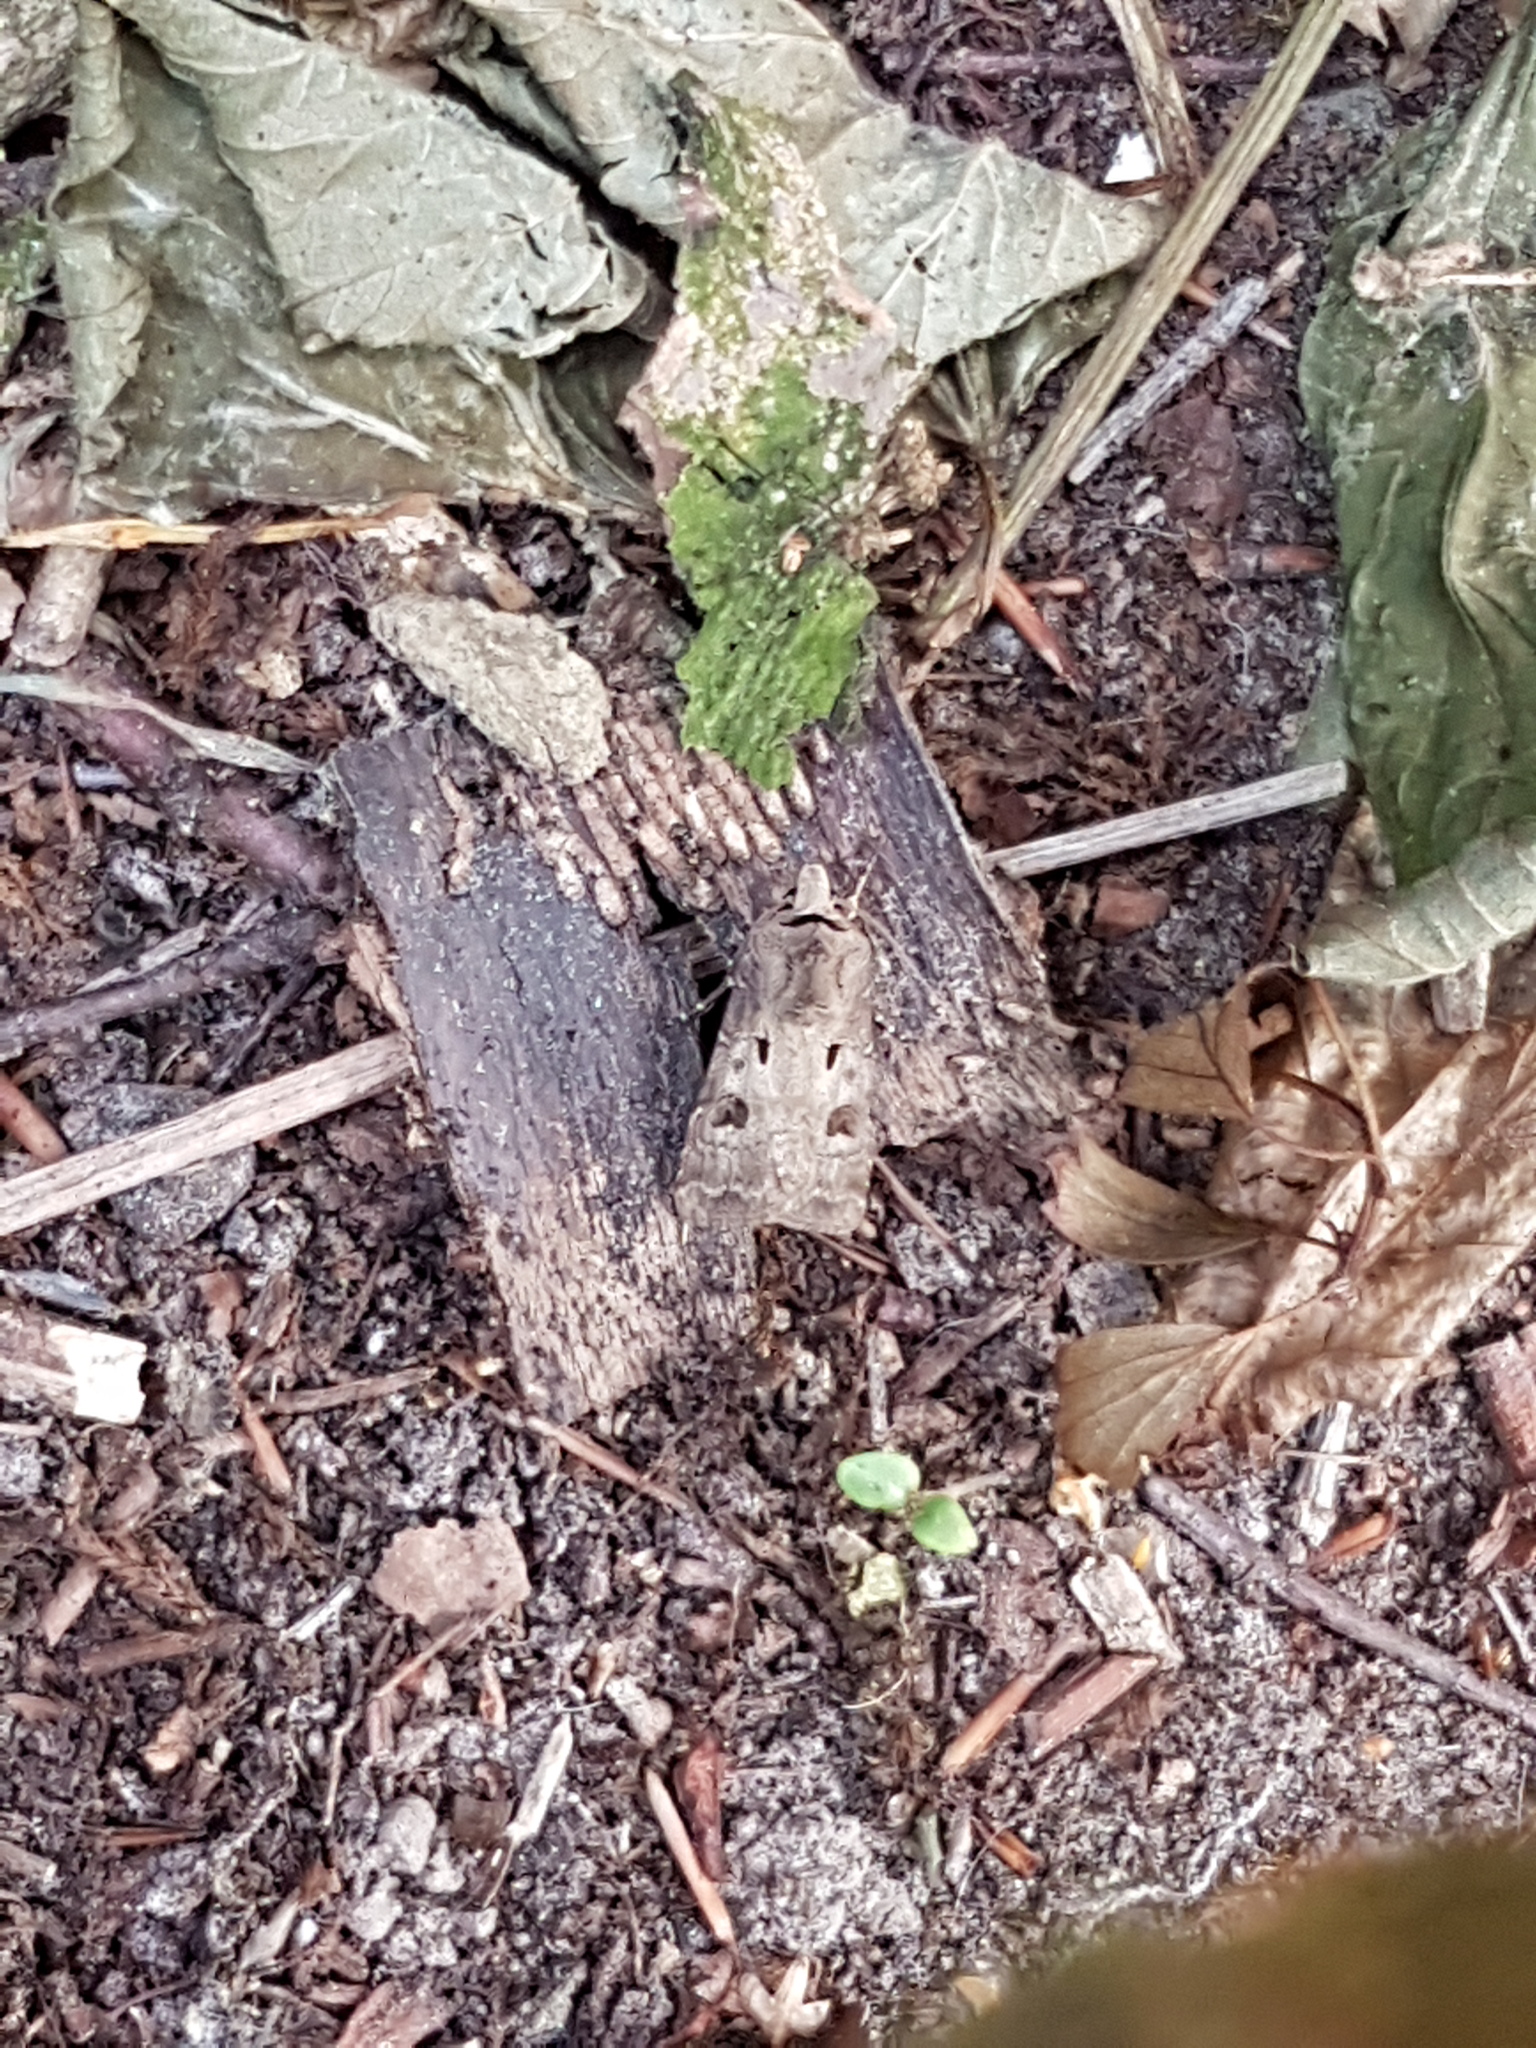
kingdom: Animalia
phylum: Arthropoda
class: Insecta
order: Lepidoptera
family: Noctuidae
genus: Agrotis
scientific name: Agrotis exclamationis
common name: Heart and dart
